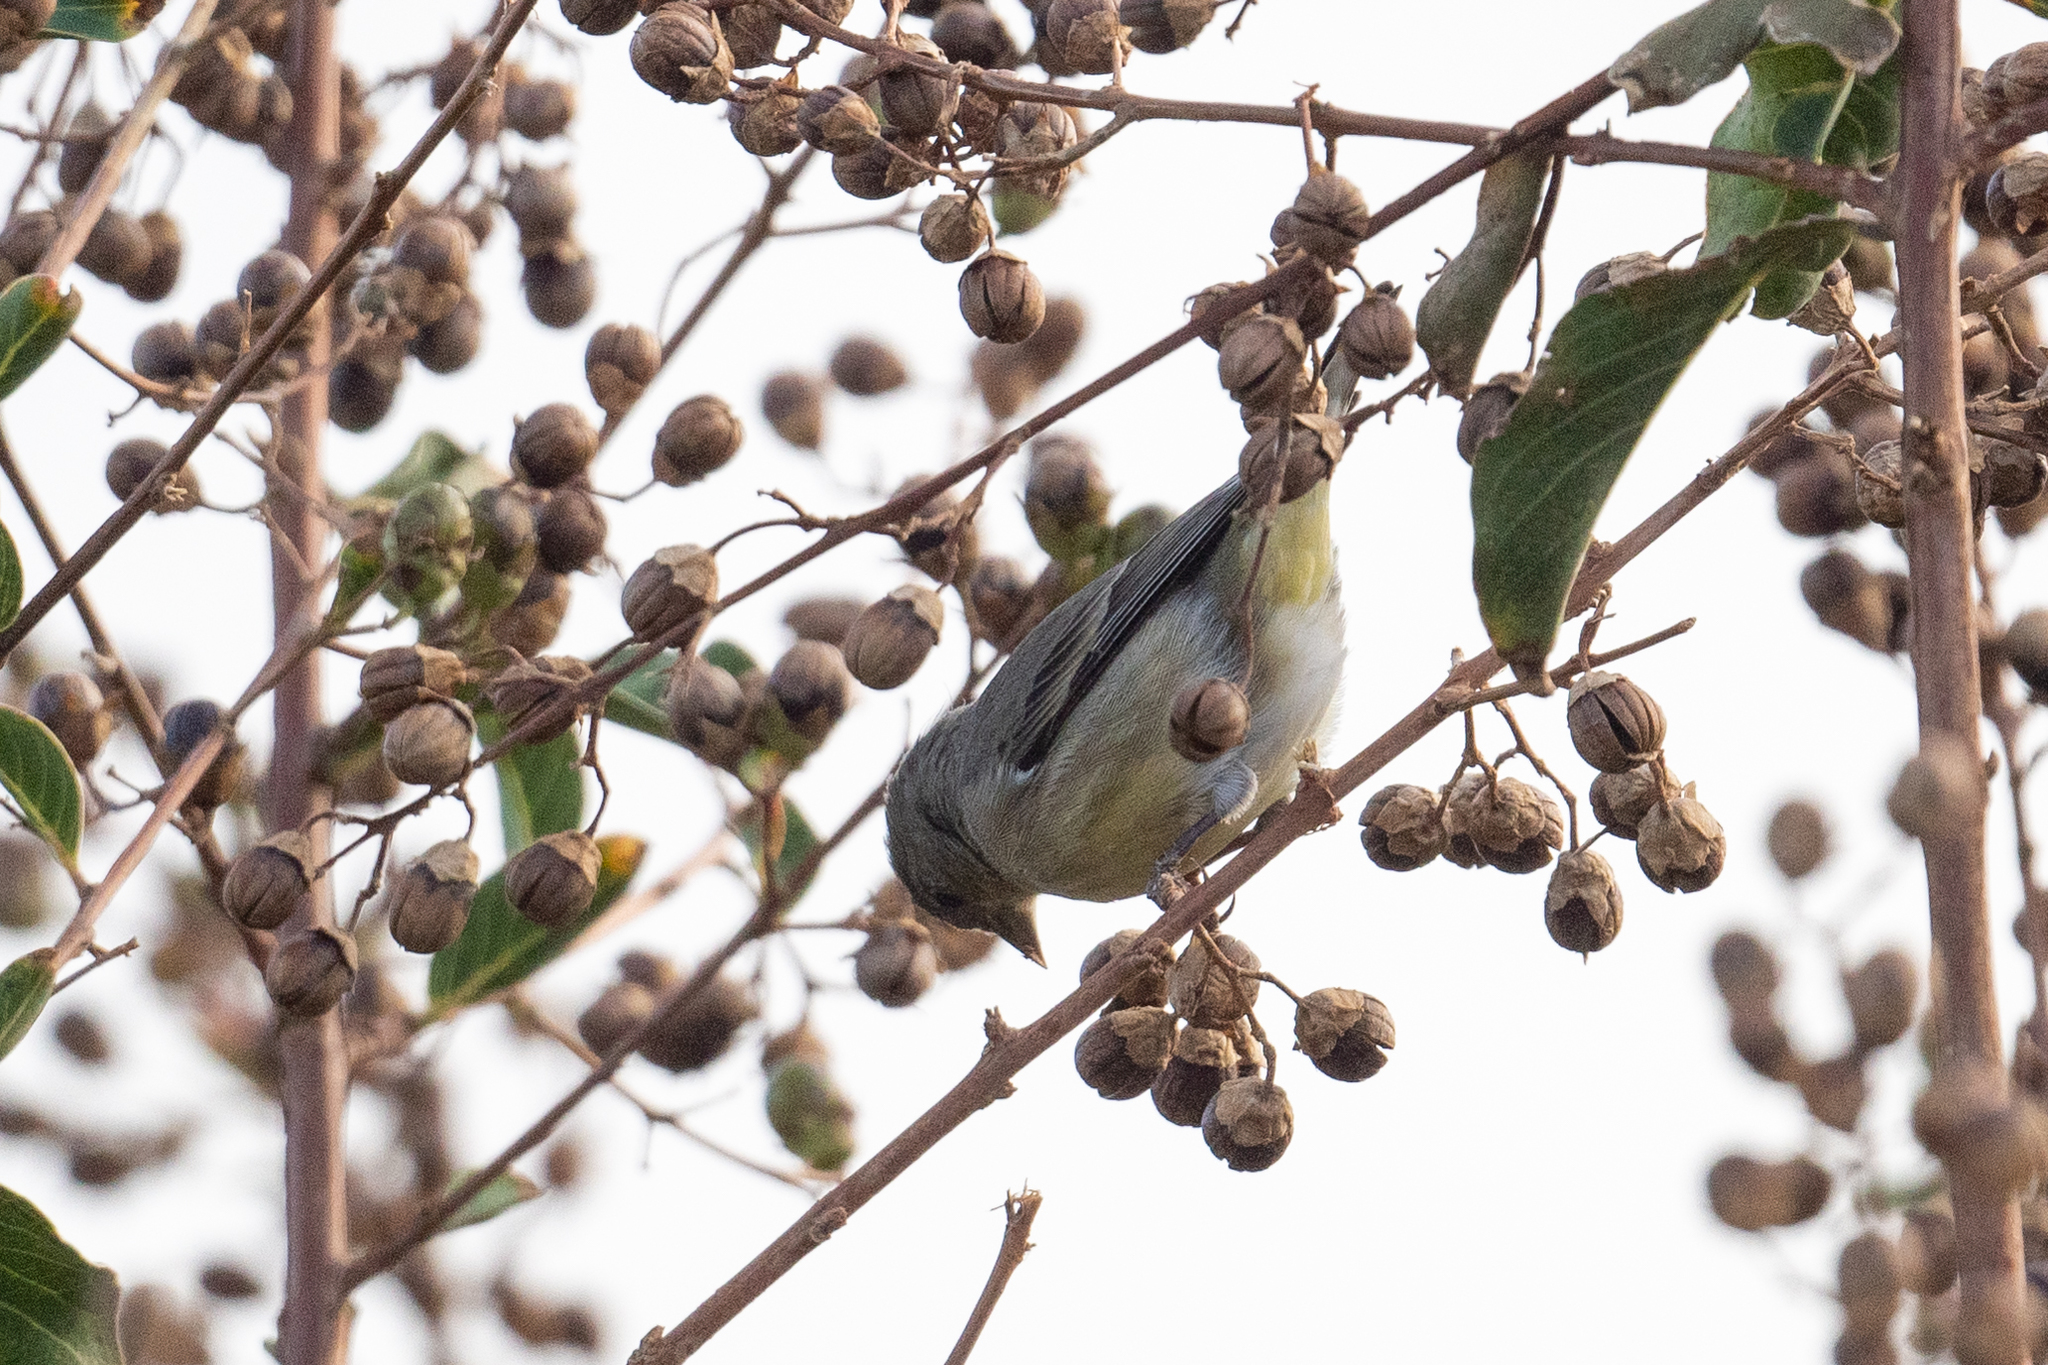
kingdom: Animalia
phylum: Chordata
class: Aves
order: Passeriformes
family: Fringillidae
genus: Spinus
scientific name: Spinus psaltria
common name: Lesser goldfinch
